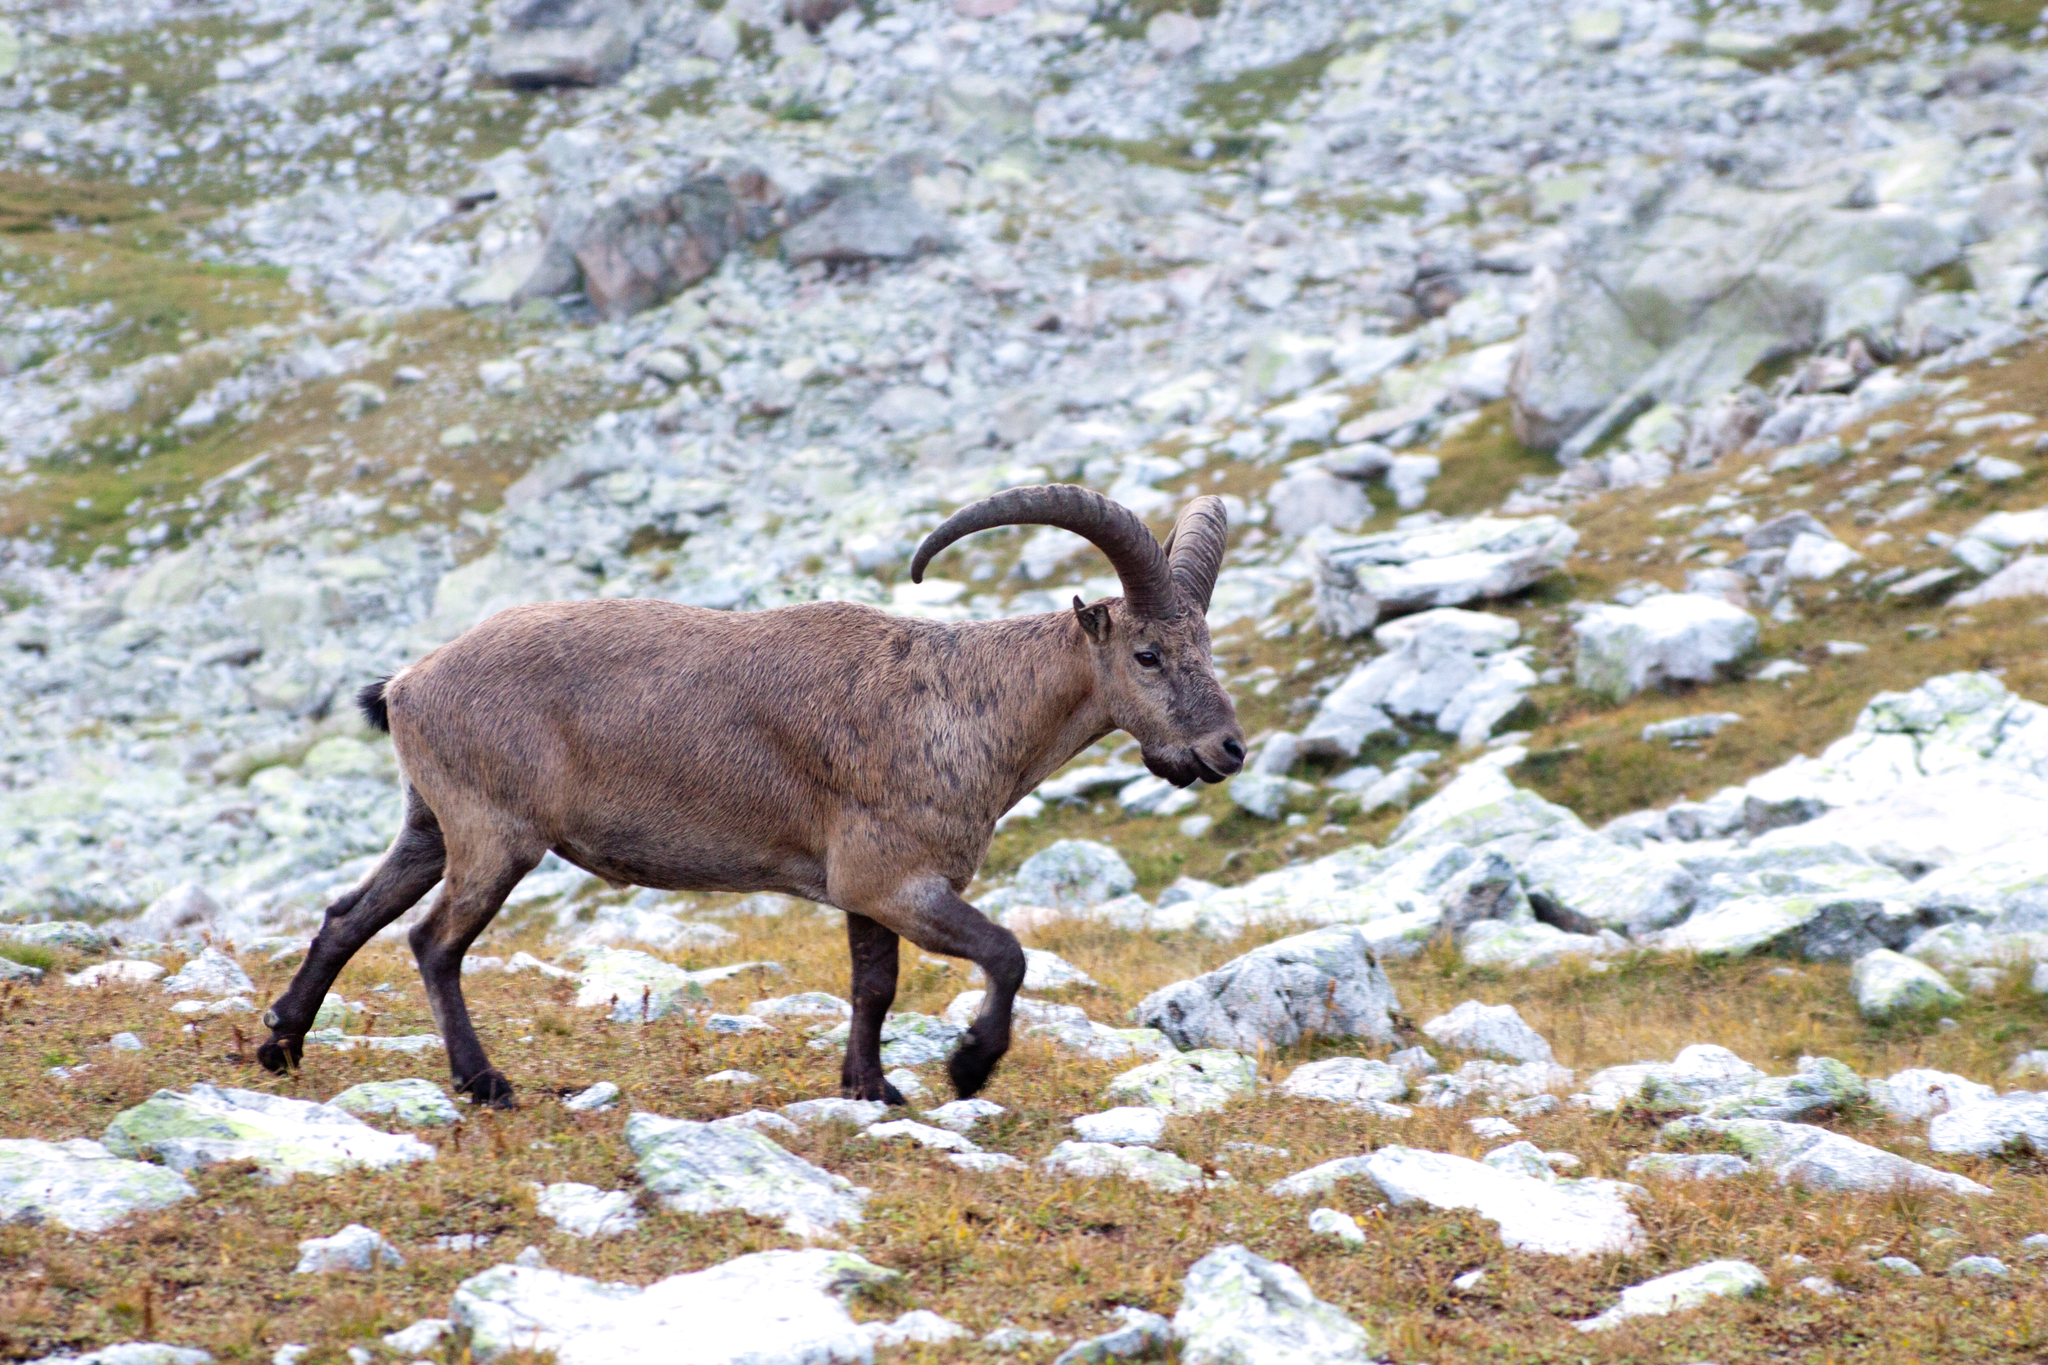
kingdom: Animalia
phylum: Chordata
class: Mammalia
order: Artiodactyla
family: Bovidae
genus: Capra
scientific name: Capra caucasica
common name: Tur
